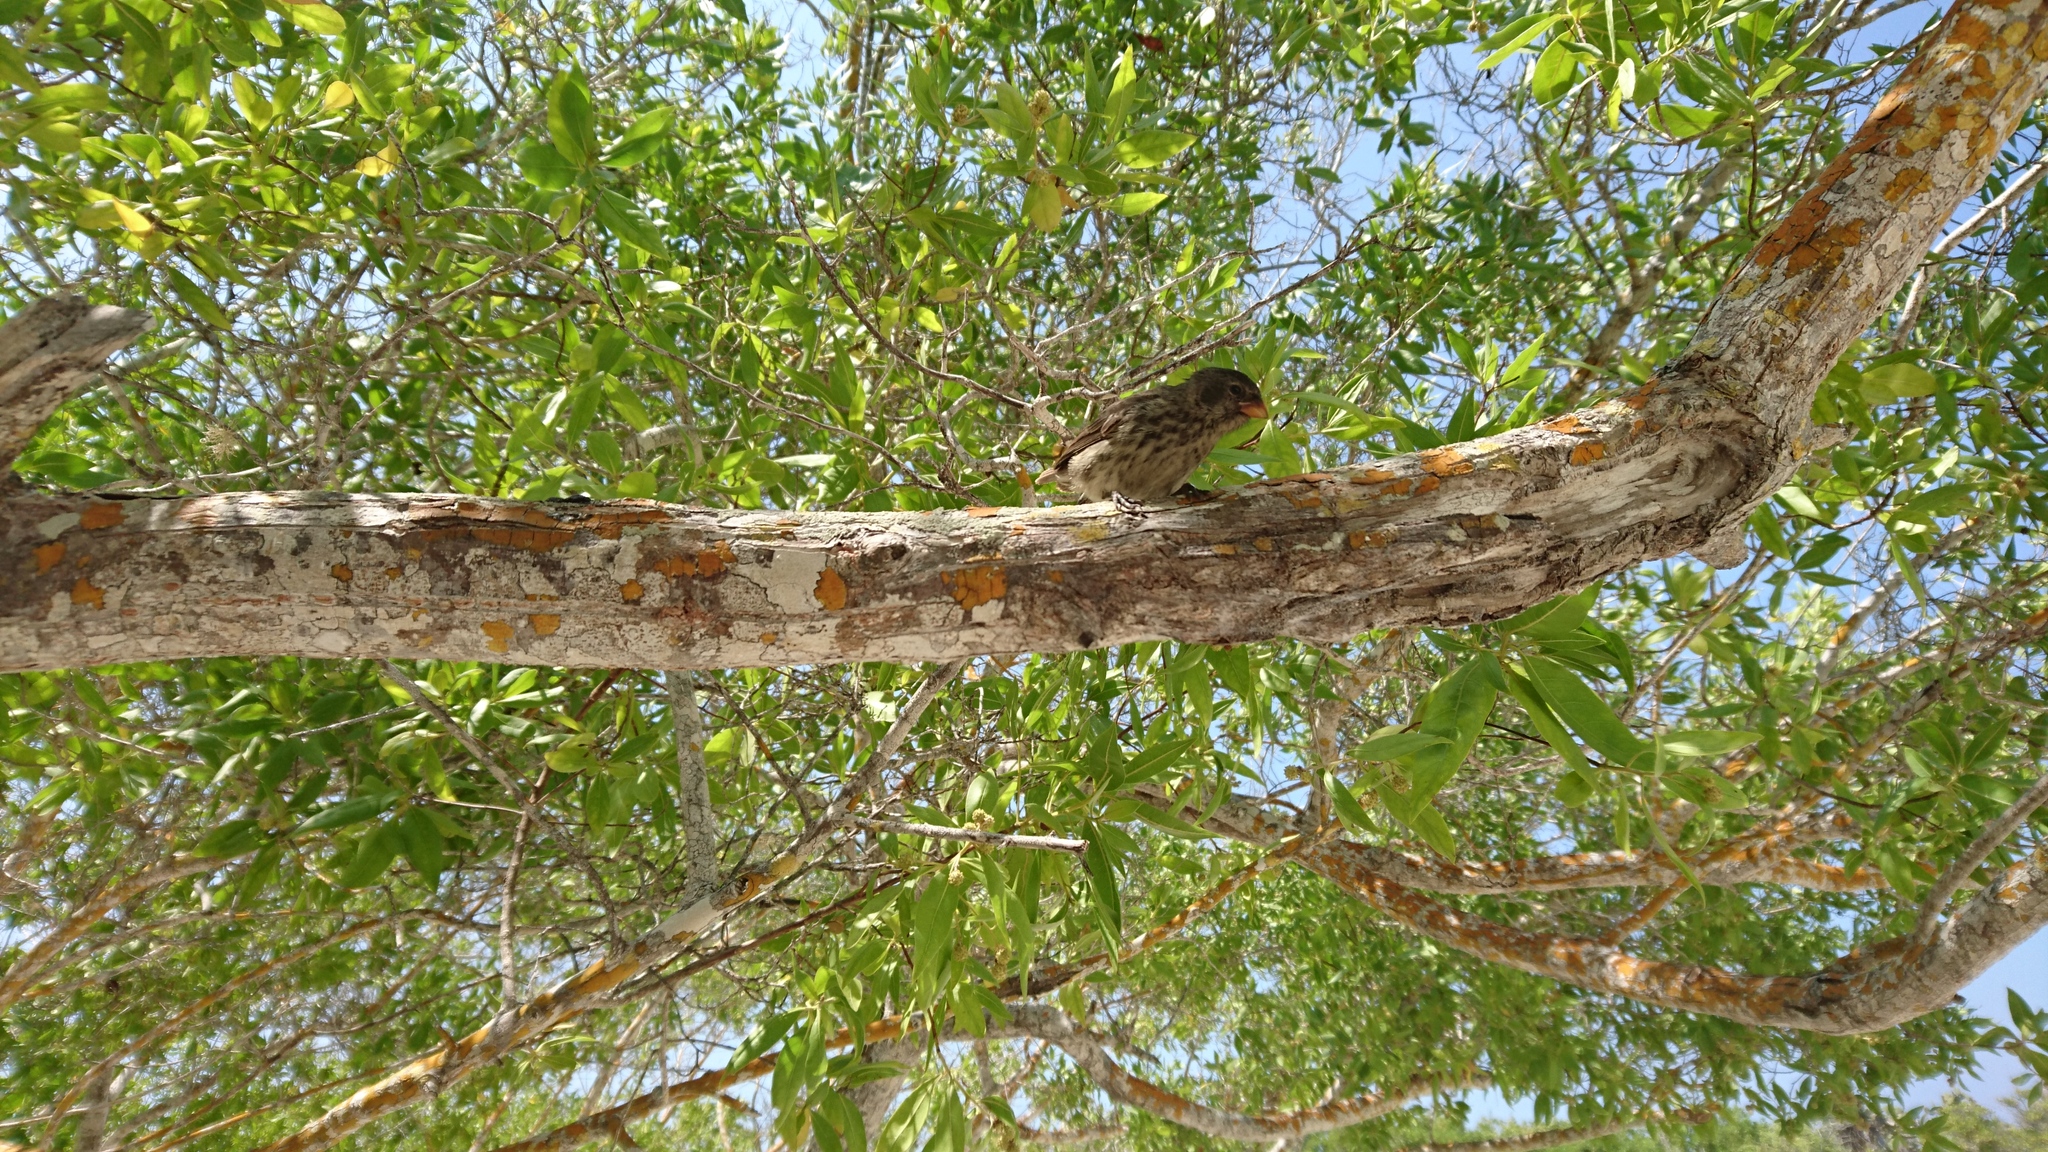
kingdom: Animalia
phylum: Chordata
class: Aves
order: Passeriformes
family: Thraupidae
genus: Geospiza
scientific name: Geospiza fortis
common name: Medium ground finch
